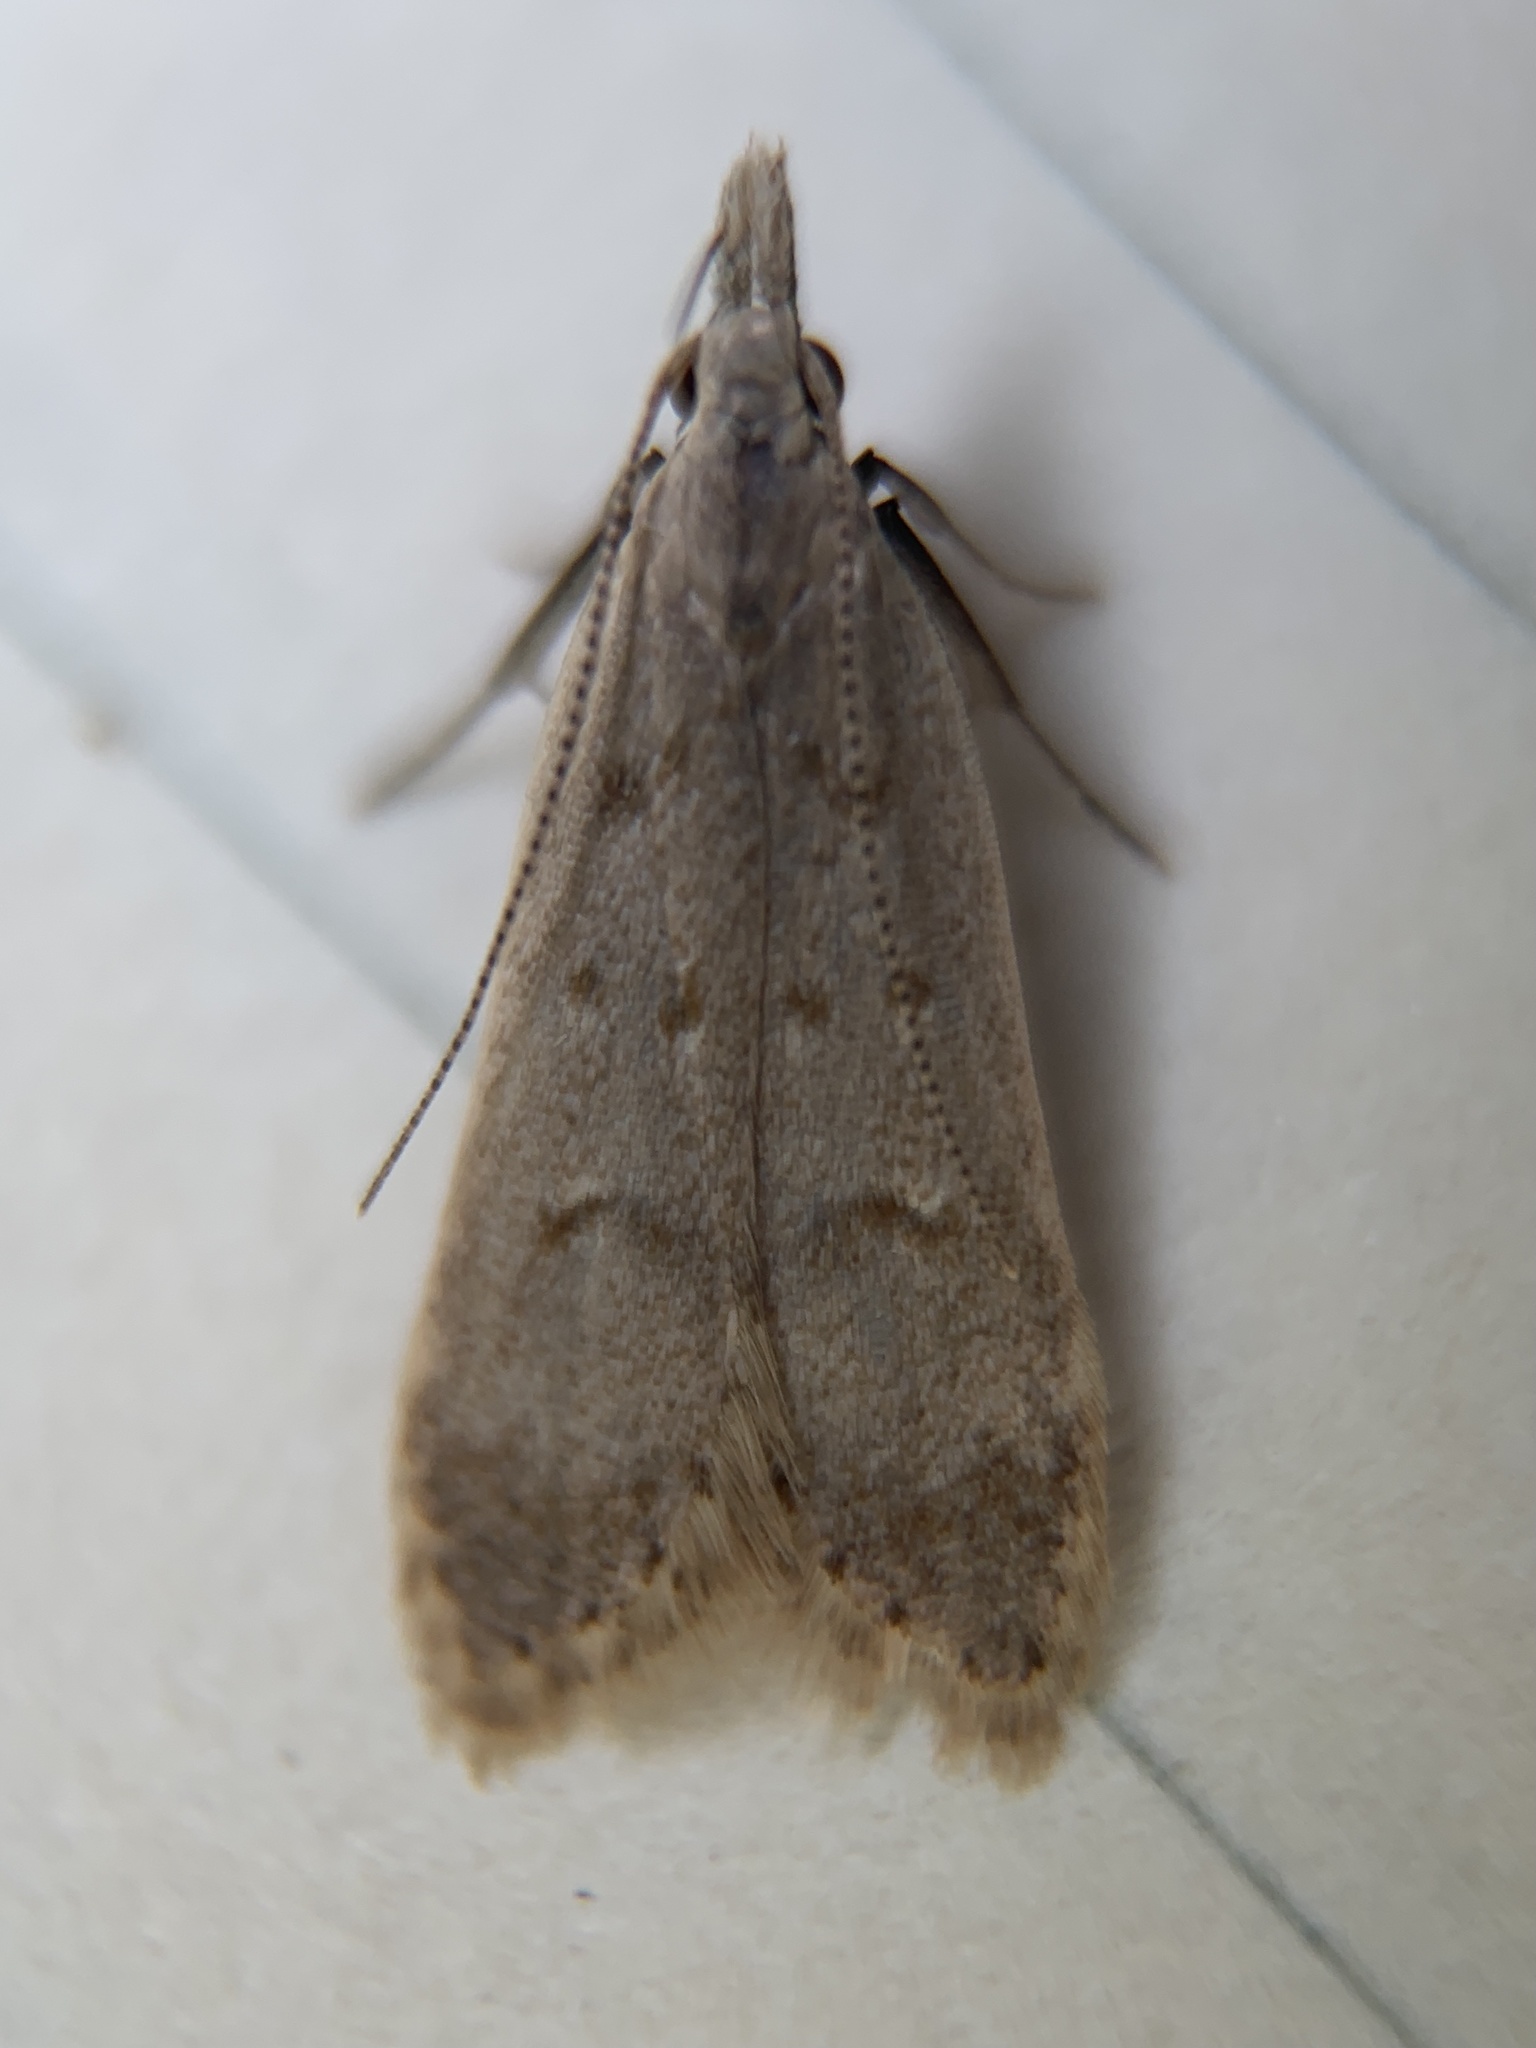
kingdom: Animalia
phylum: Arthropoda
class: Insecta
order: Lepidoptera
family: Gelechiidae
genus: Dichomeris
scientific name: Dichomeris punctidiscellus
